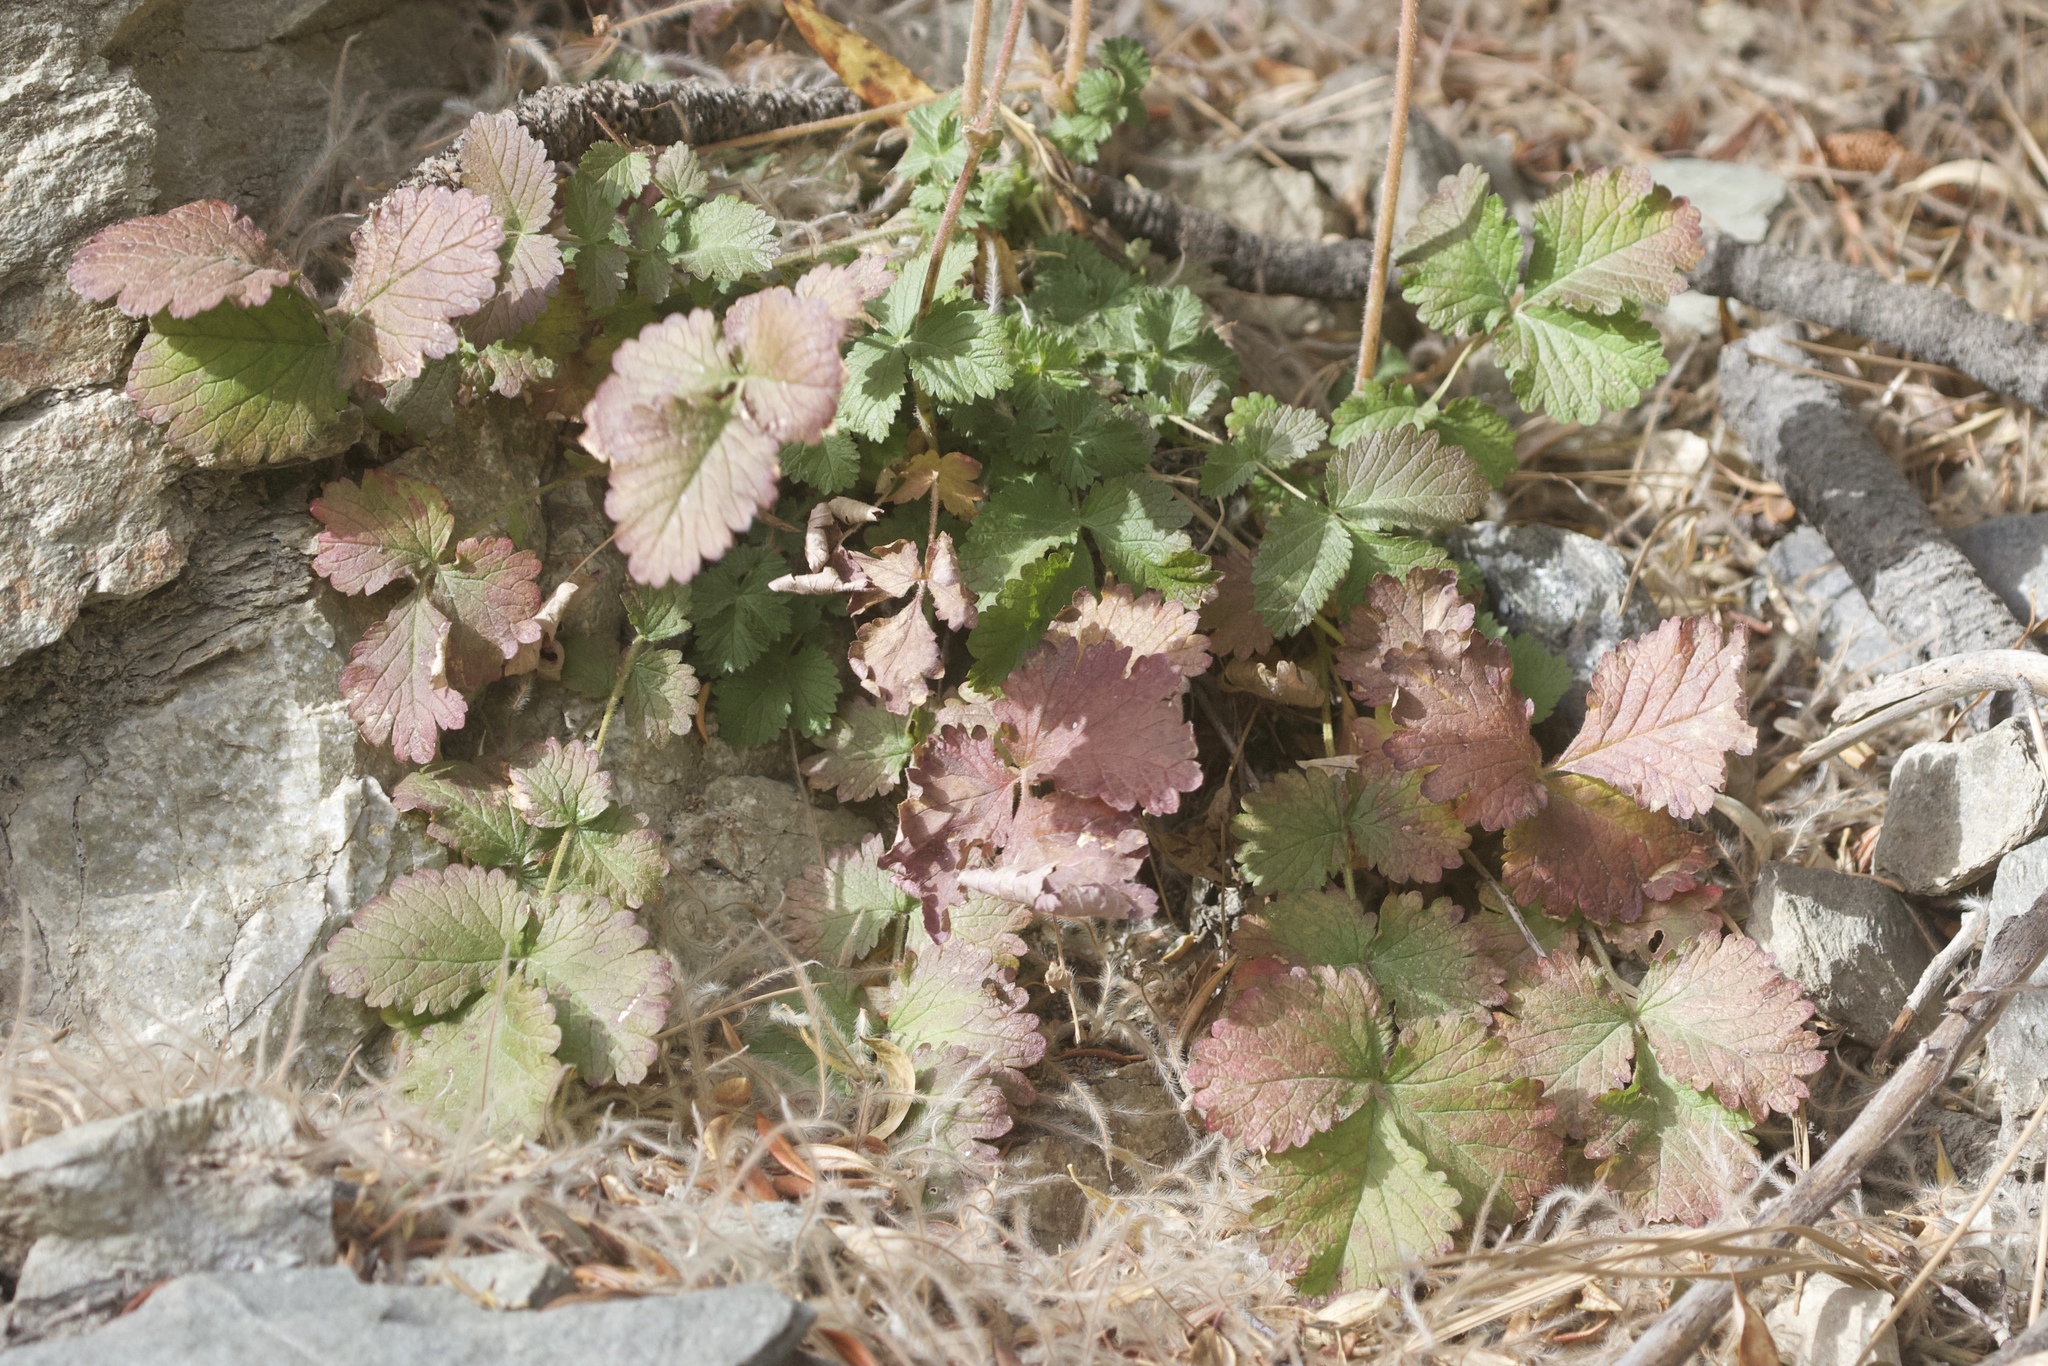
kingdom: Plantae
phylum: Tracheophyta
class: Magnoliopsida
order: Rosales
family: Rosaceae
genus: Drymocallis
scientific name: Drymocallis glandulosa
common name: Sticky cinquefoil
